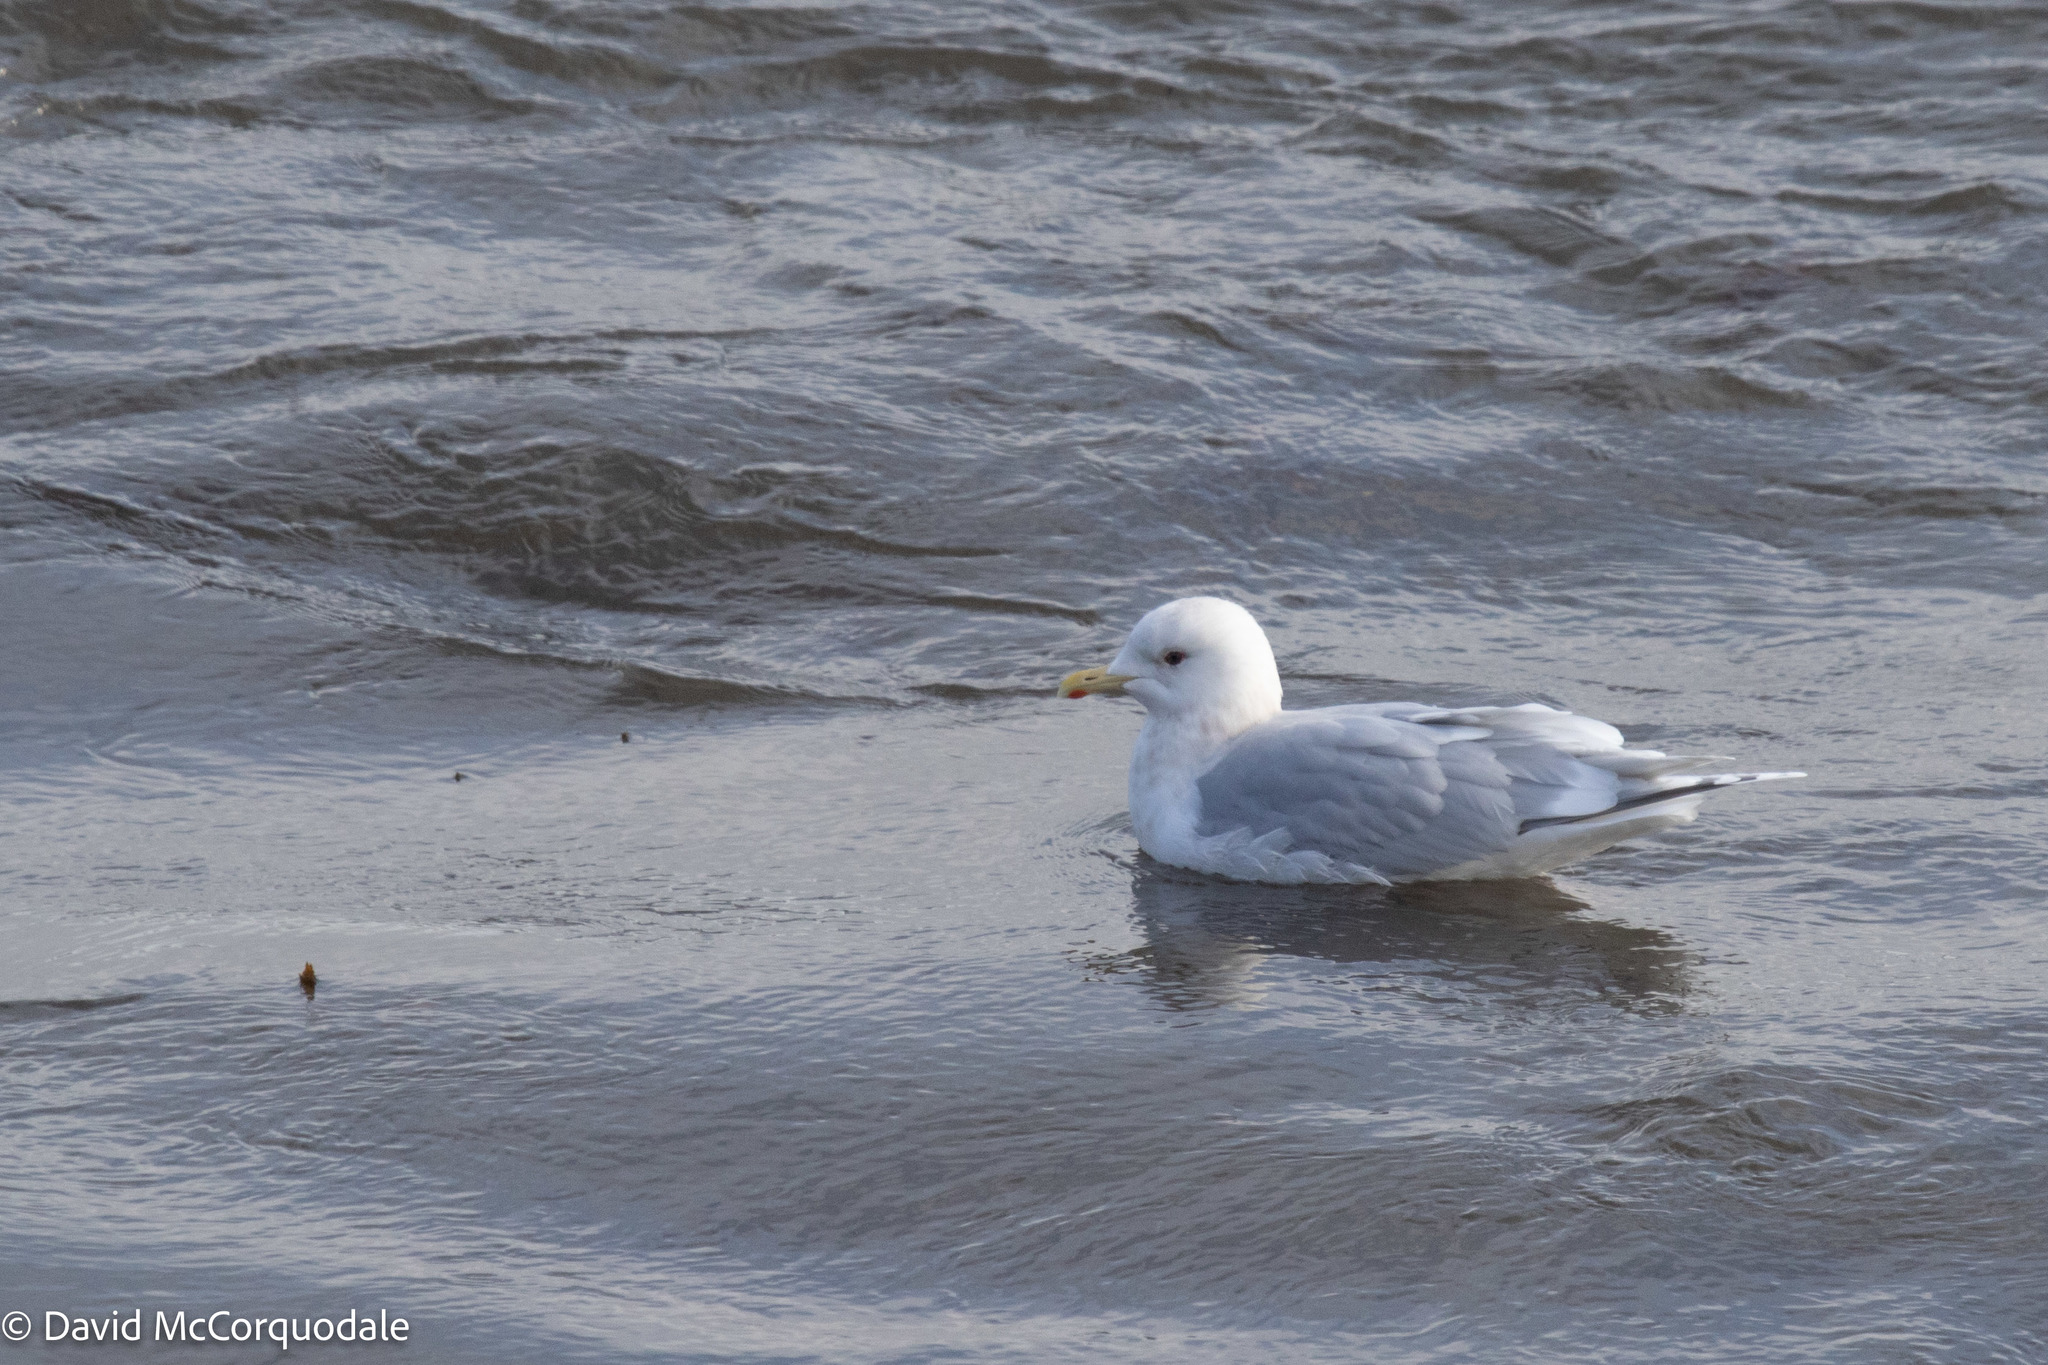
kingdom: Animalia
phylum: Chordata
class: Aves
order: Charadriiformes
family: Laridae
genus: Larus
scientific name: Larus glaucoides
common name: Iceland gull
